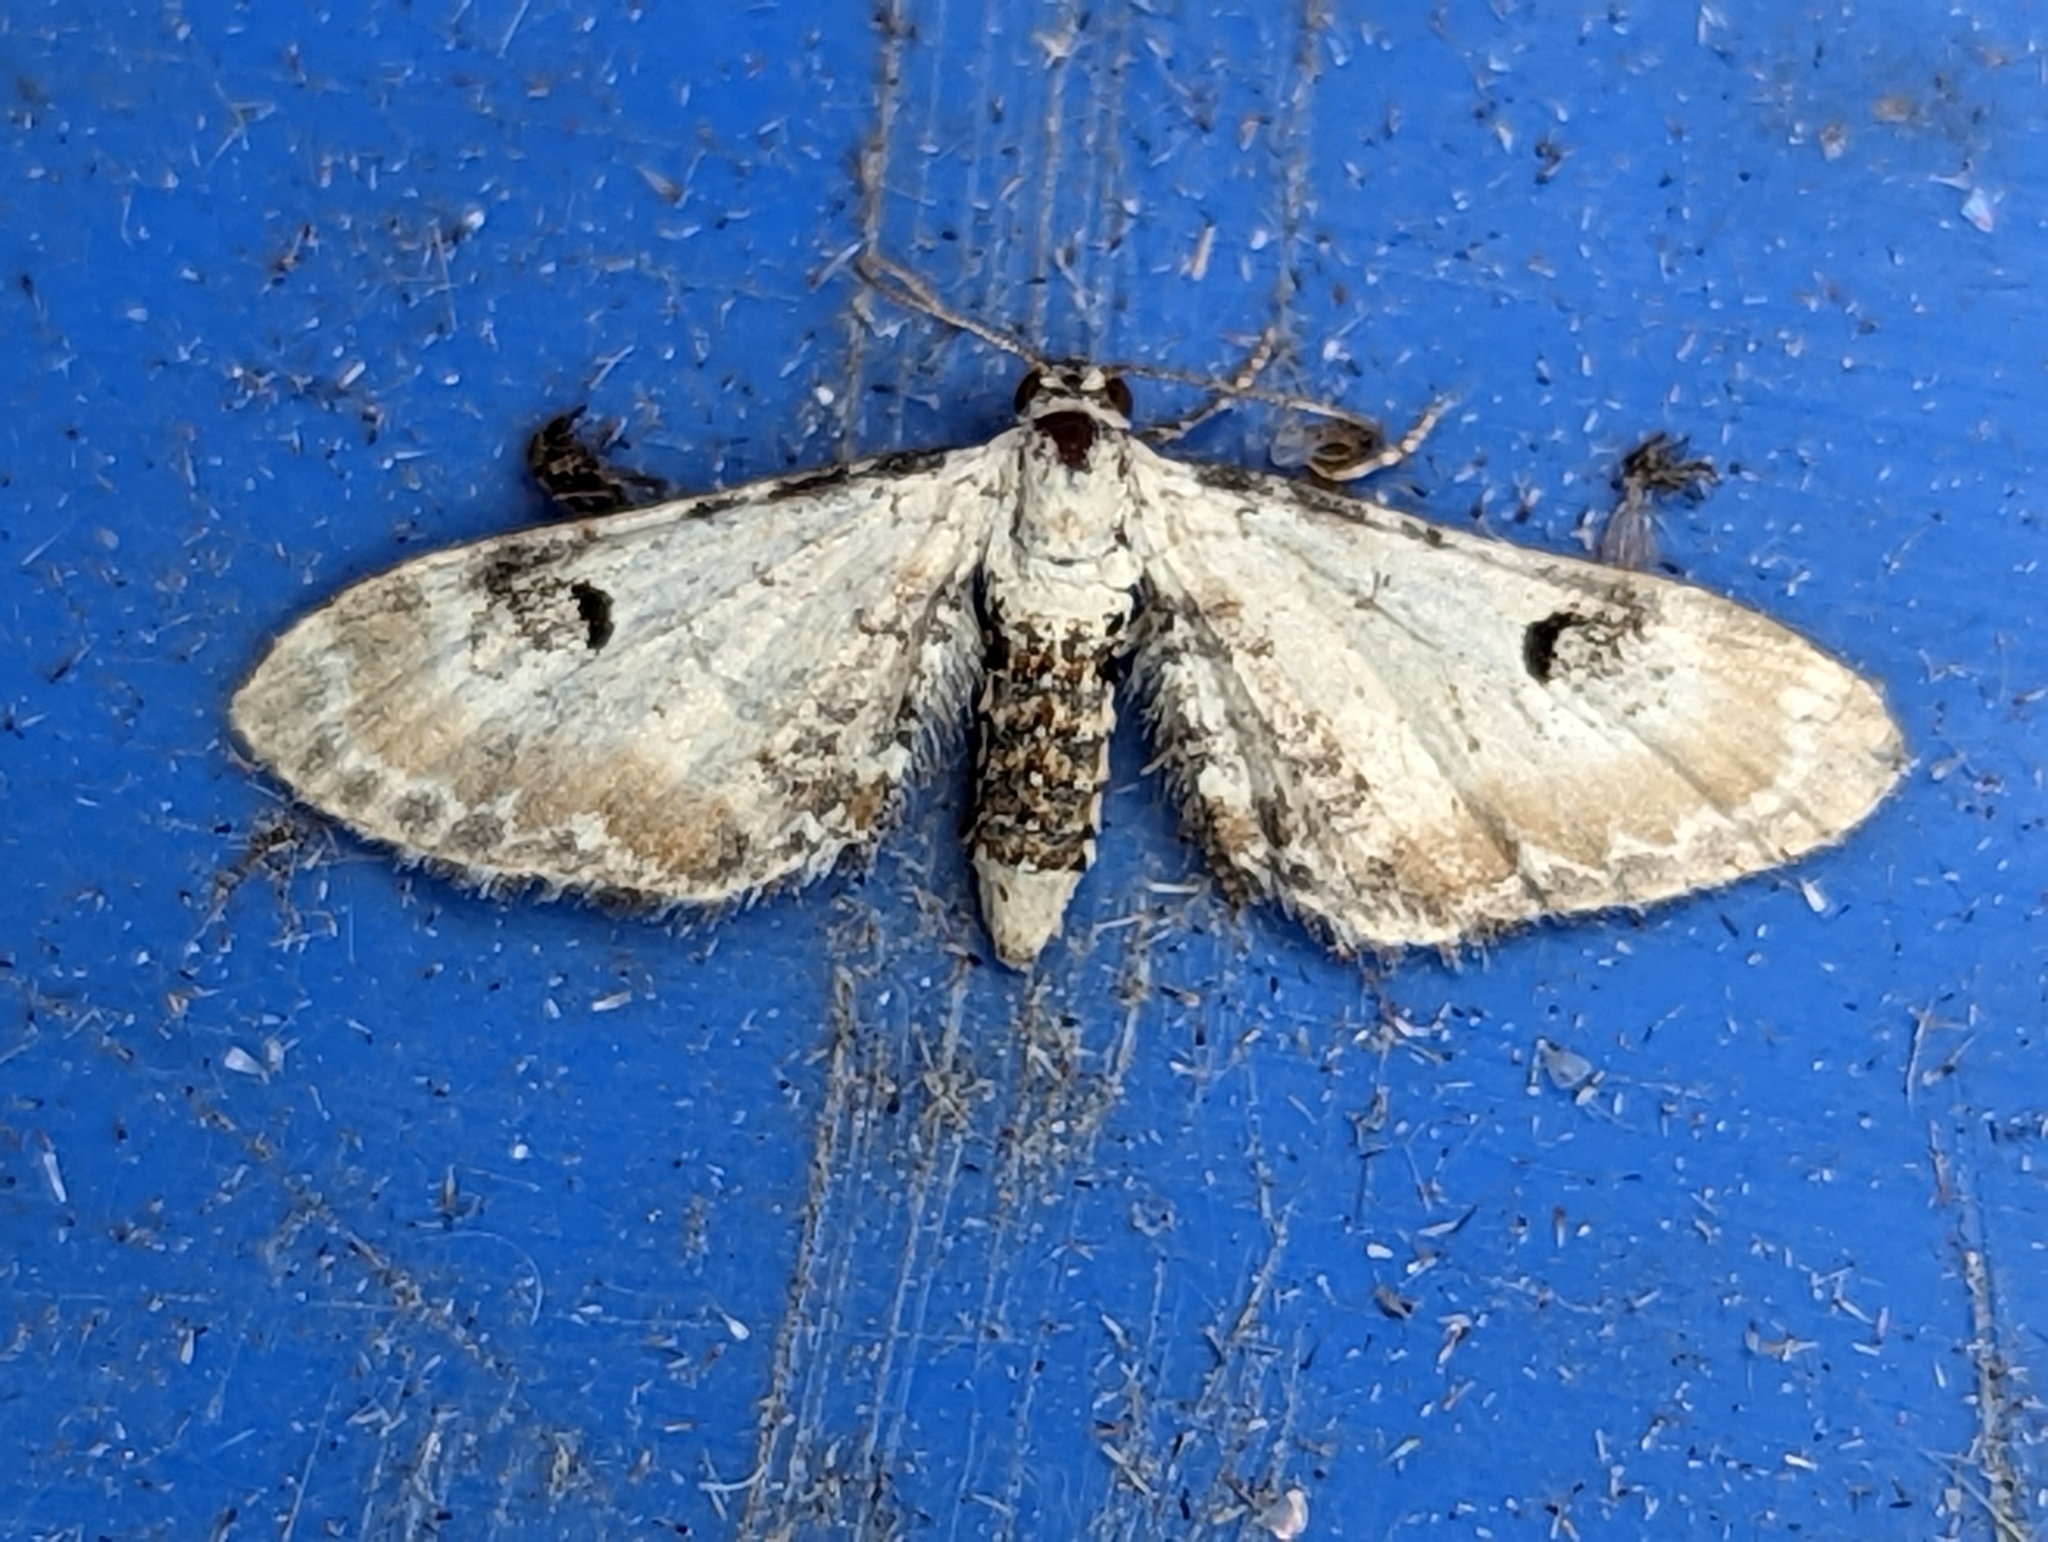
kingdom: Animalia
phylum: Arthropoda
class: Insecta
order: Lepidoptera
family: Geometridae
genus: Eupithecia
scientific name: Eupithecia centaureata
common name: Lime-speck pug
